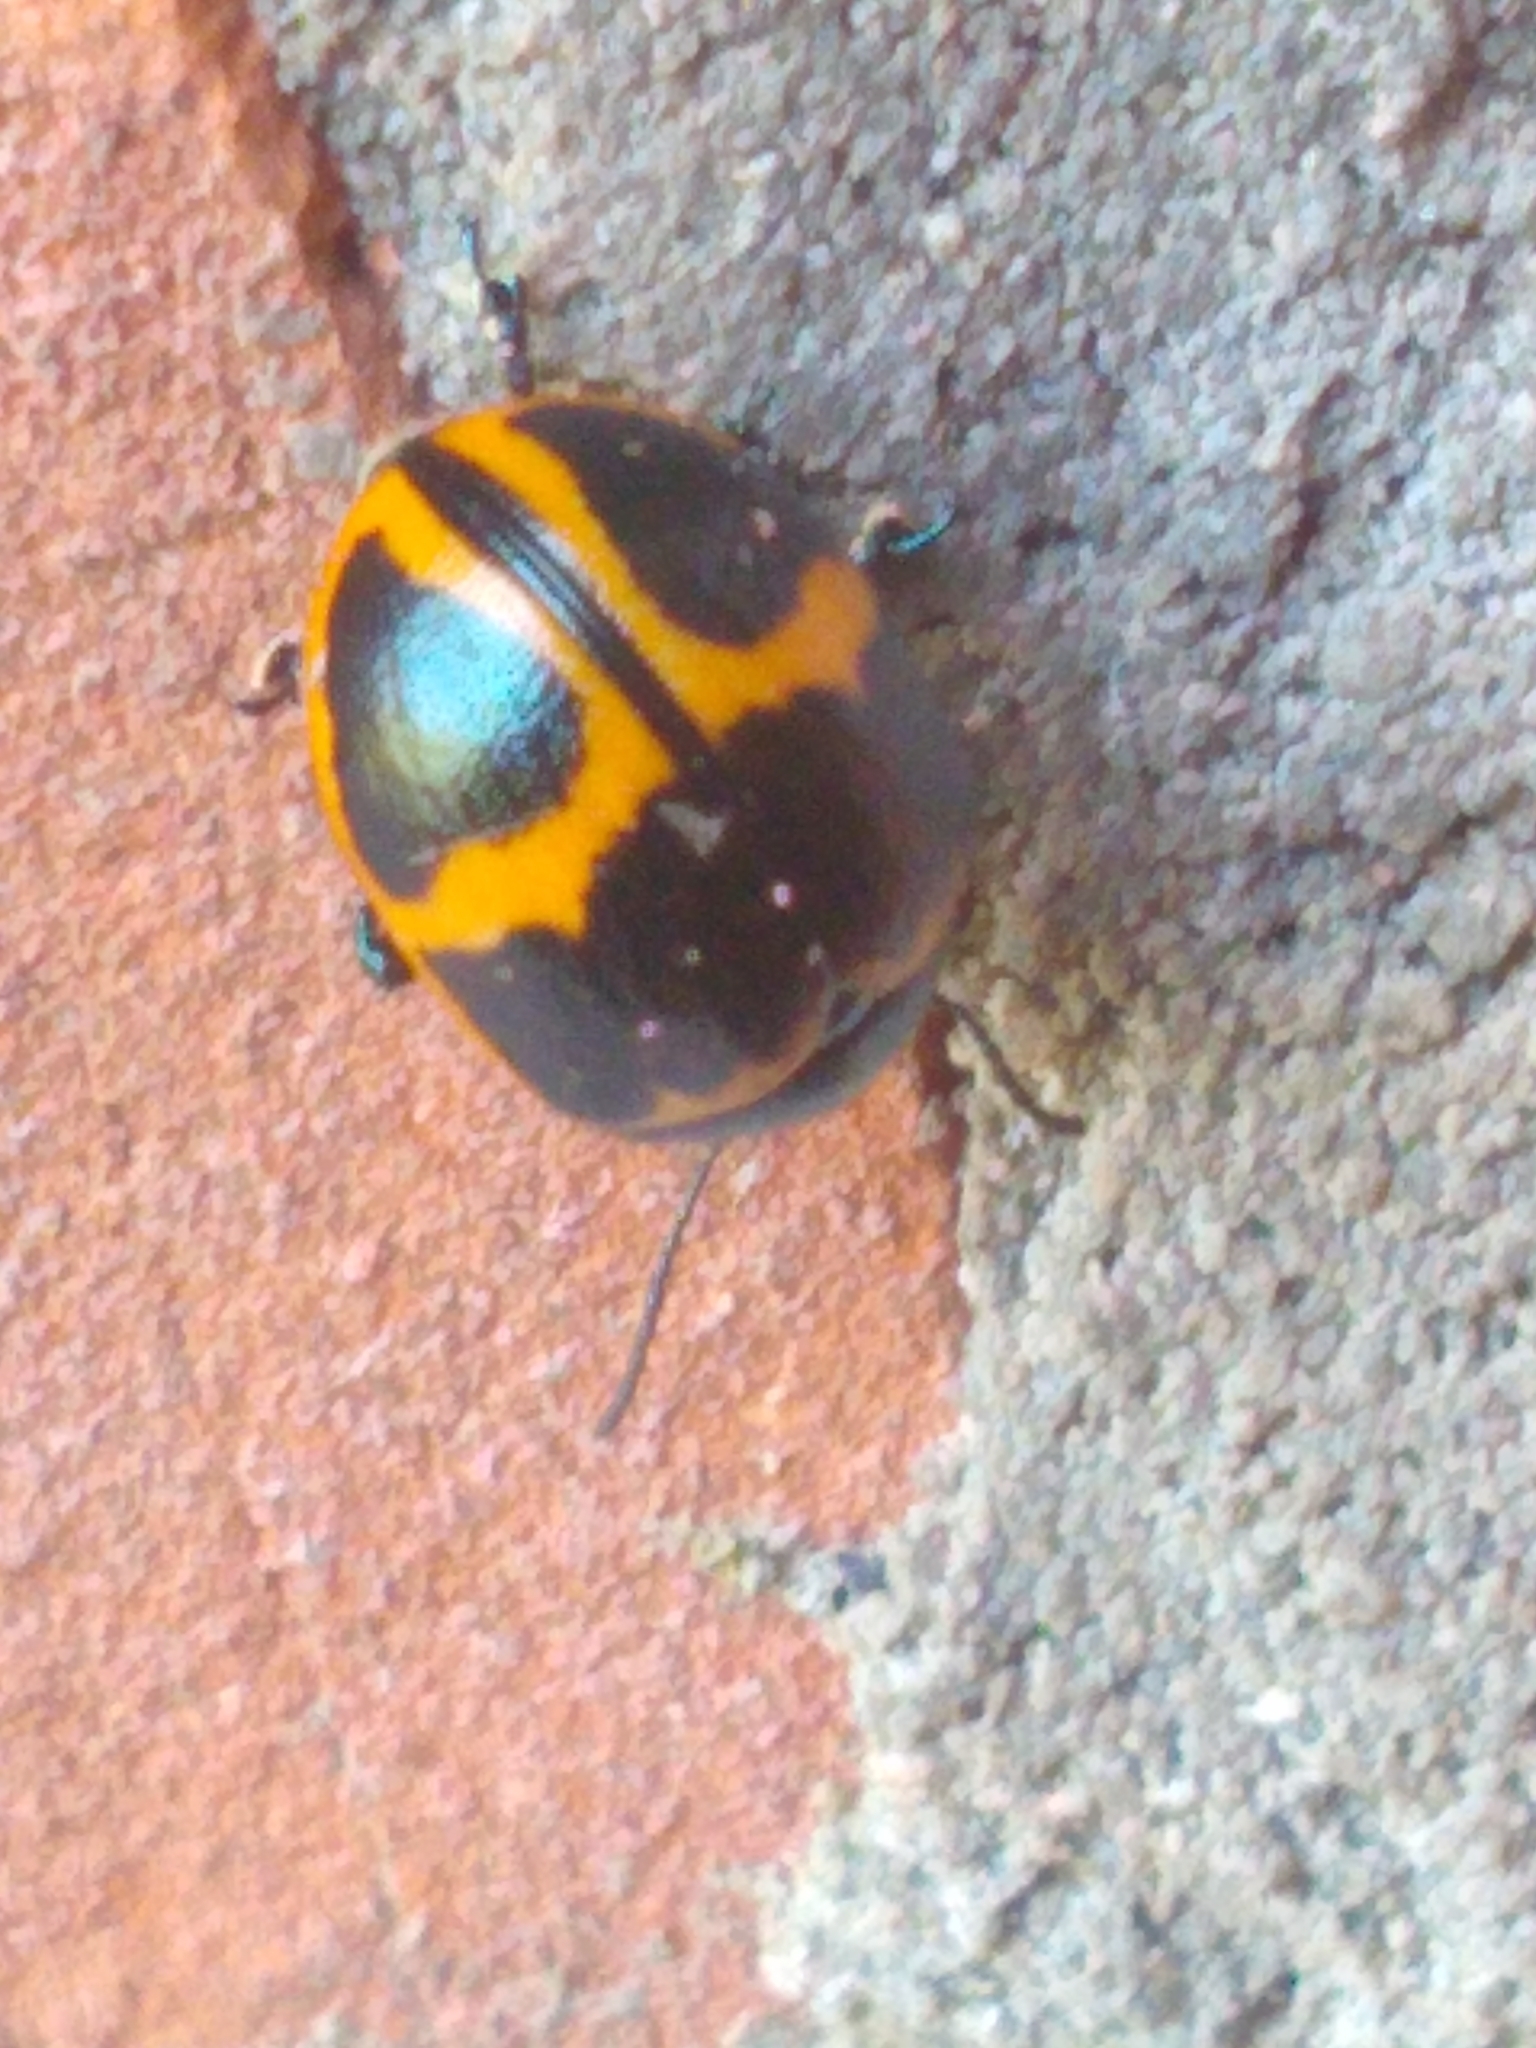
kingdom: Animalia
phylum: Arthropoda
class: Insecta
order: Coleoptera
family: Chrysomelidae
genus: Labidomera
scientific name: Labidomera clivicollis
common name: Swamp milkweed leaf beetle
